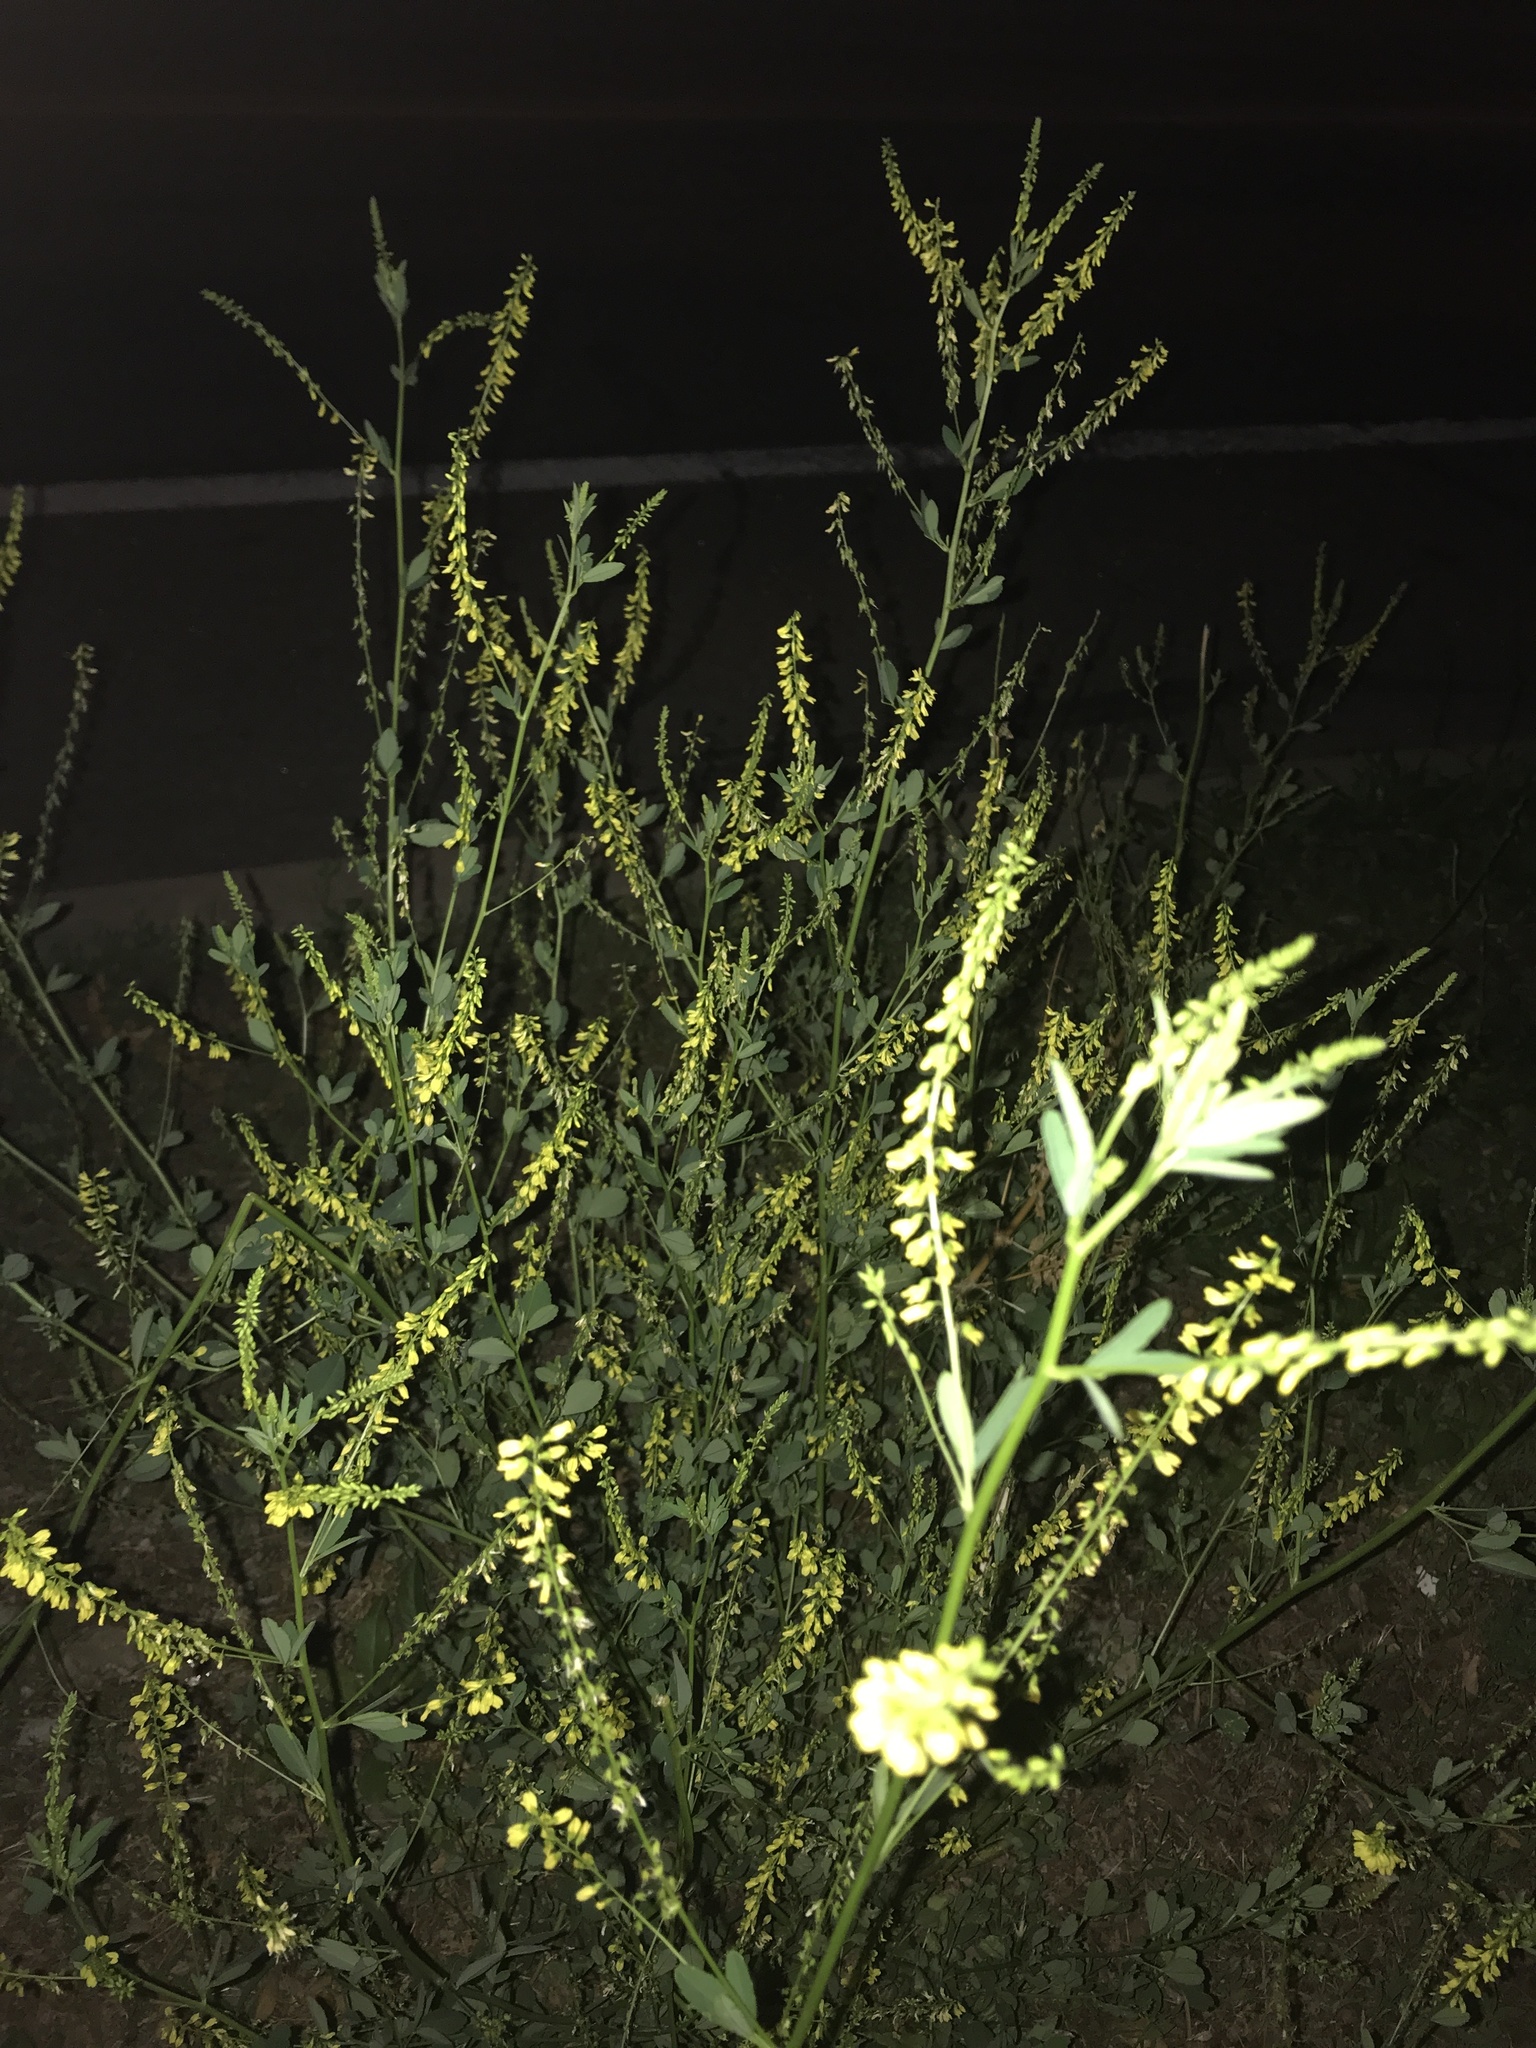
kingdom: Plantae
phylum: Tracheophyta
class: Magnoliopsida
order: Fabales
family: Fabaceae
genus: Melilotus
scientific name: Melilotus officinalis
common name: Sweetclover
